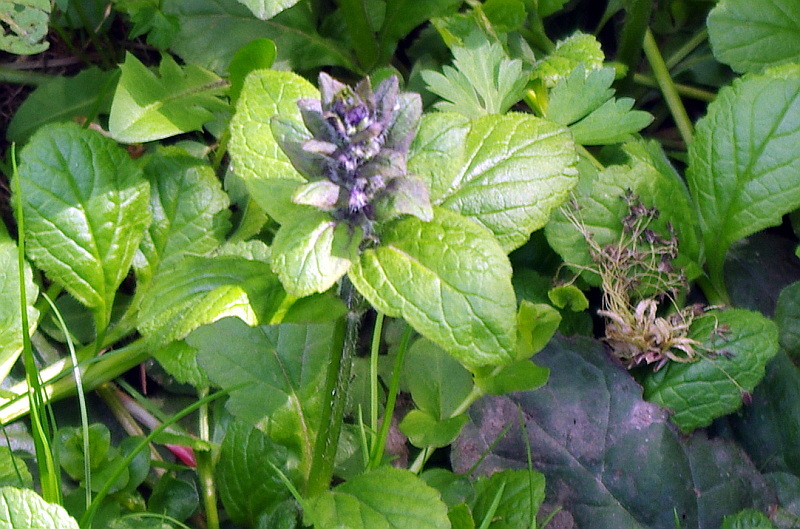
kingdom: Plantae
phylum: Tracheophyta
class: Magnoliopsida
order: Lamiales
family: Lamiaceae
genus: Ajuga
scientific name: Ajuga reptans
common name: Bugle
